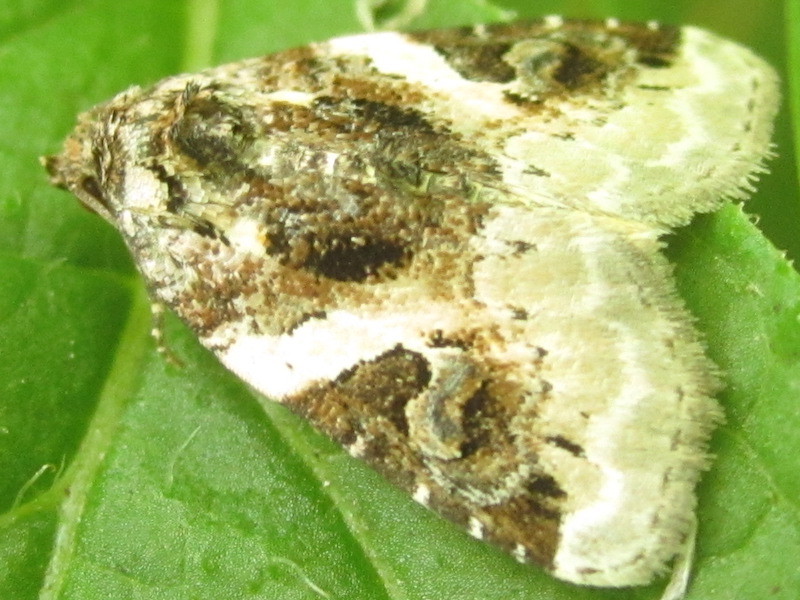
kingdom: Animalia
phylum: Arthropoda
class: Insecta
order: Lepidoptera
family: Noctuidae
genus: Pseudeustrotia
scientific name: Pseudeustrotia carneola
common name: Pink-barred lithacodia moth
